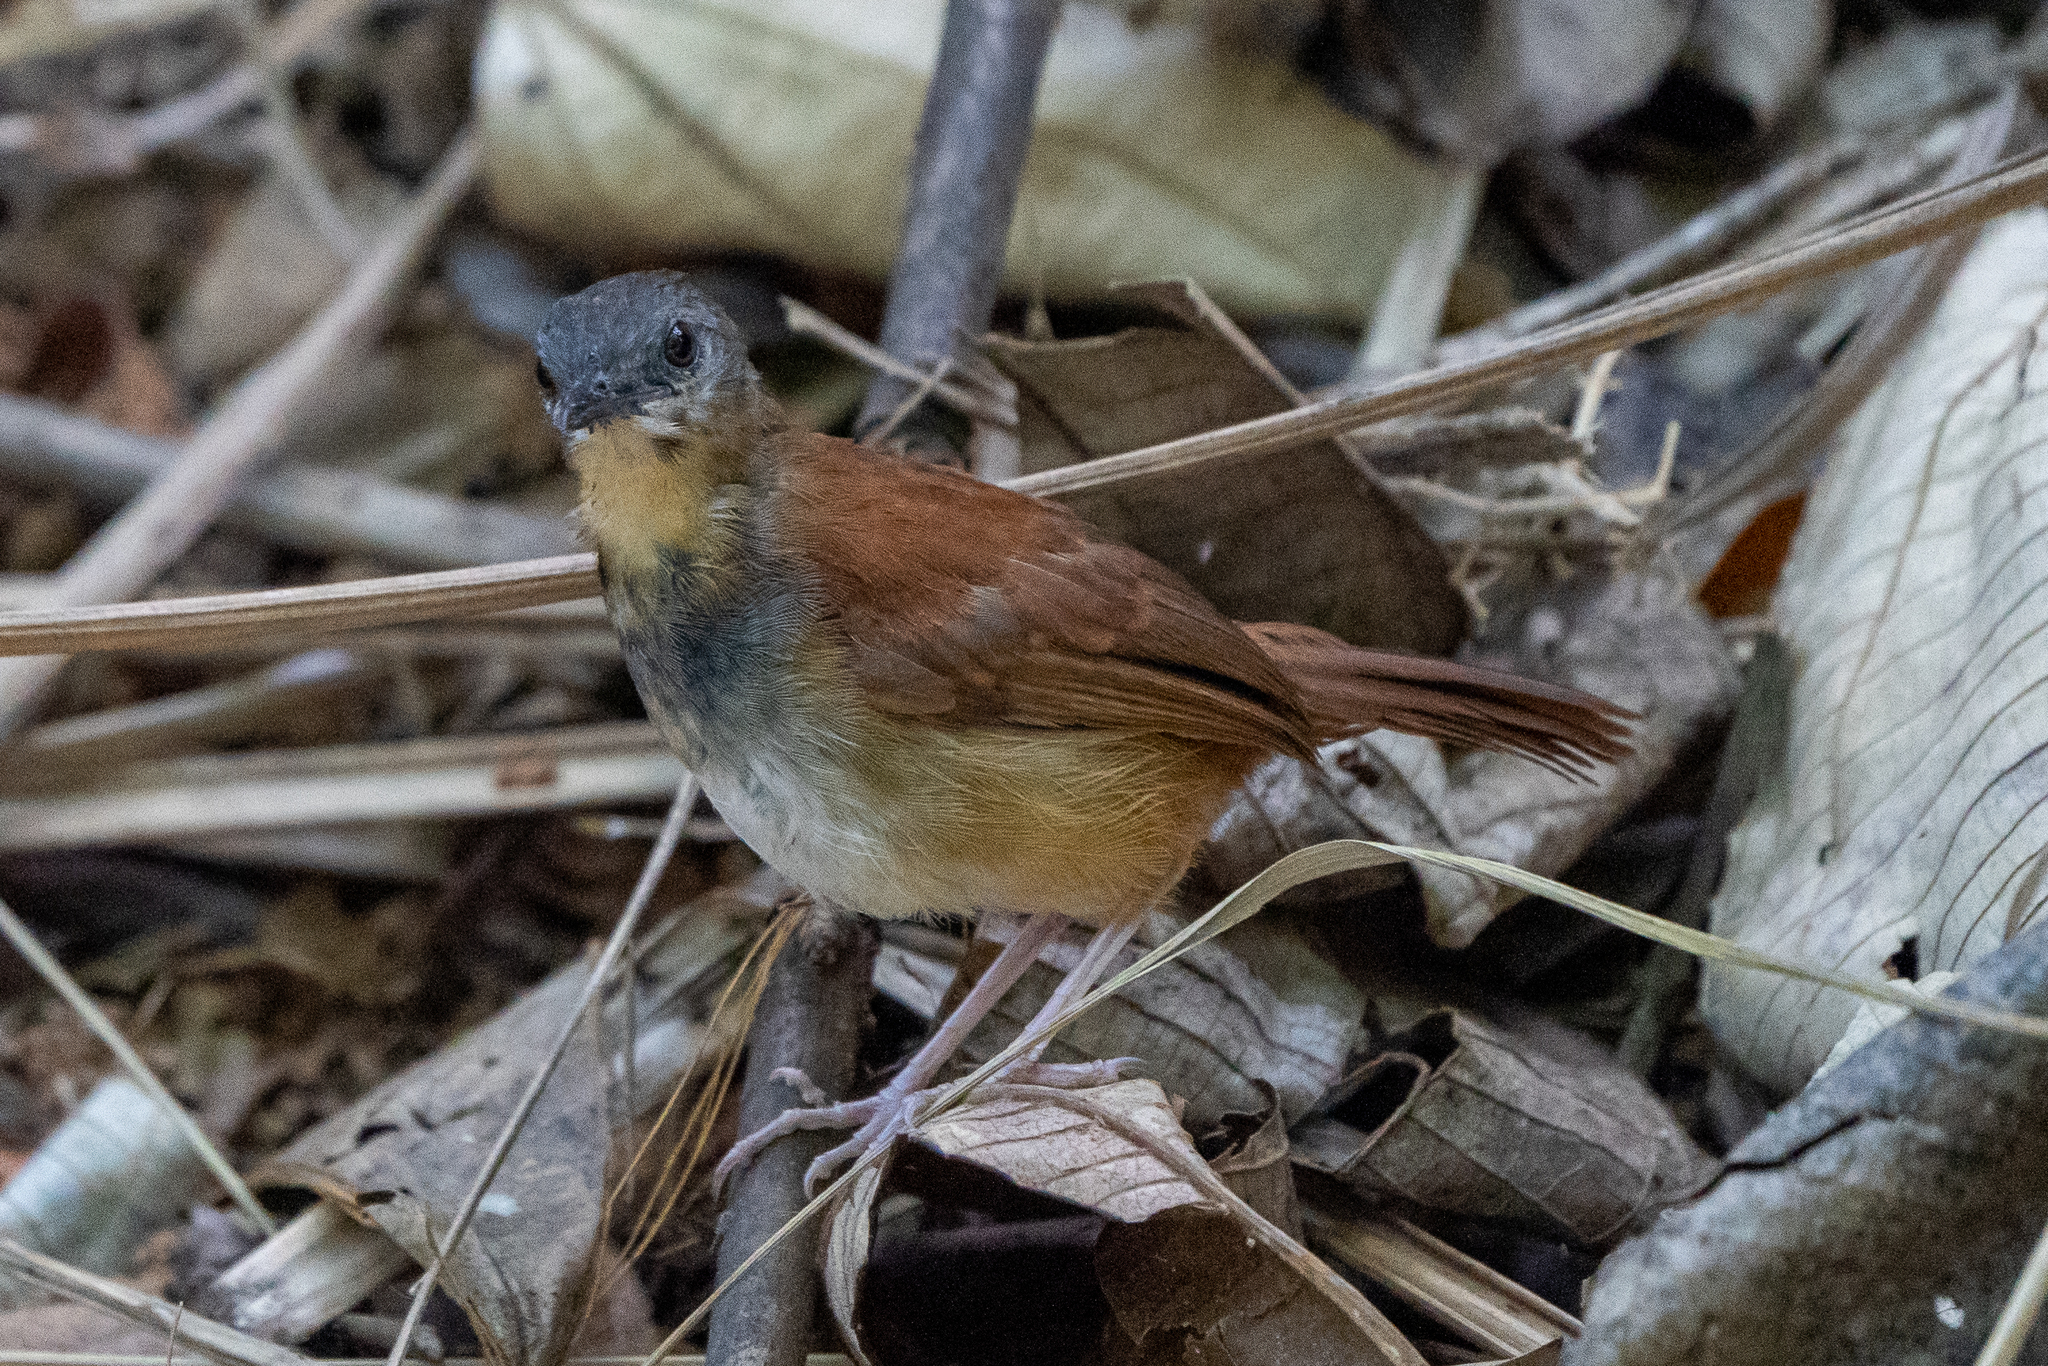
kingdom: Animalia
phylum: Chordata
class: Aves
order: Passeriformes
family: Thamnophilidae
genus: Myrmeciza
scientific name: Myrmeciza longipes
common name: White-bellied antbird
